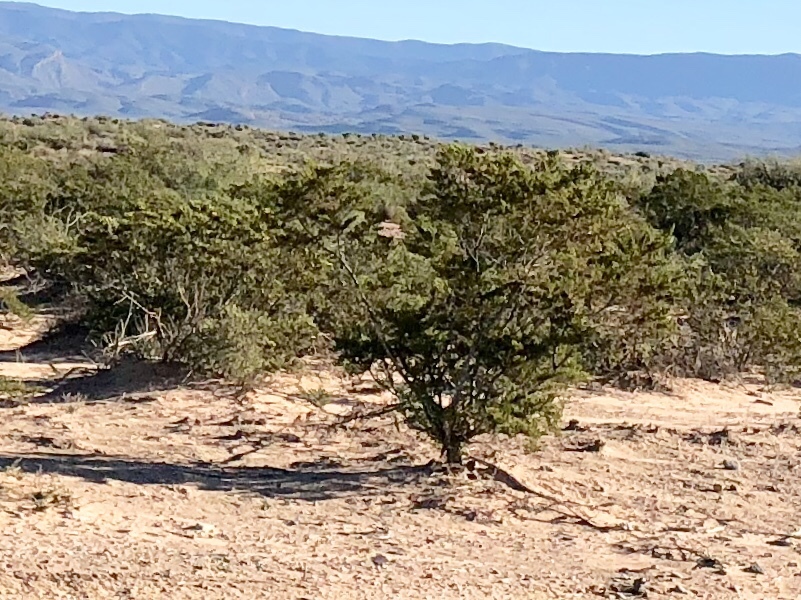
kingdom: Plantae
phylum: Tracheophyta
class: Magnoliopsida
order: Zygophyllales
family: Zygophyllaceae
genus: Larrea
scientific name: Larrea tridentata
